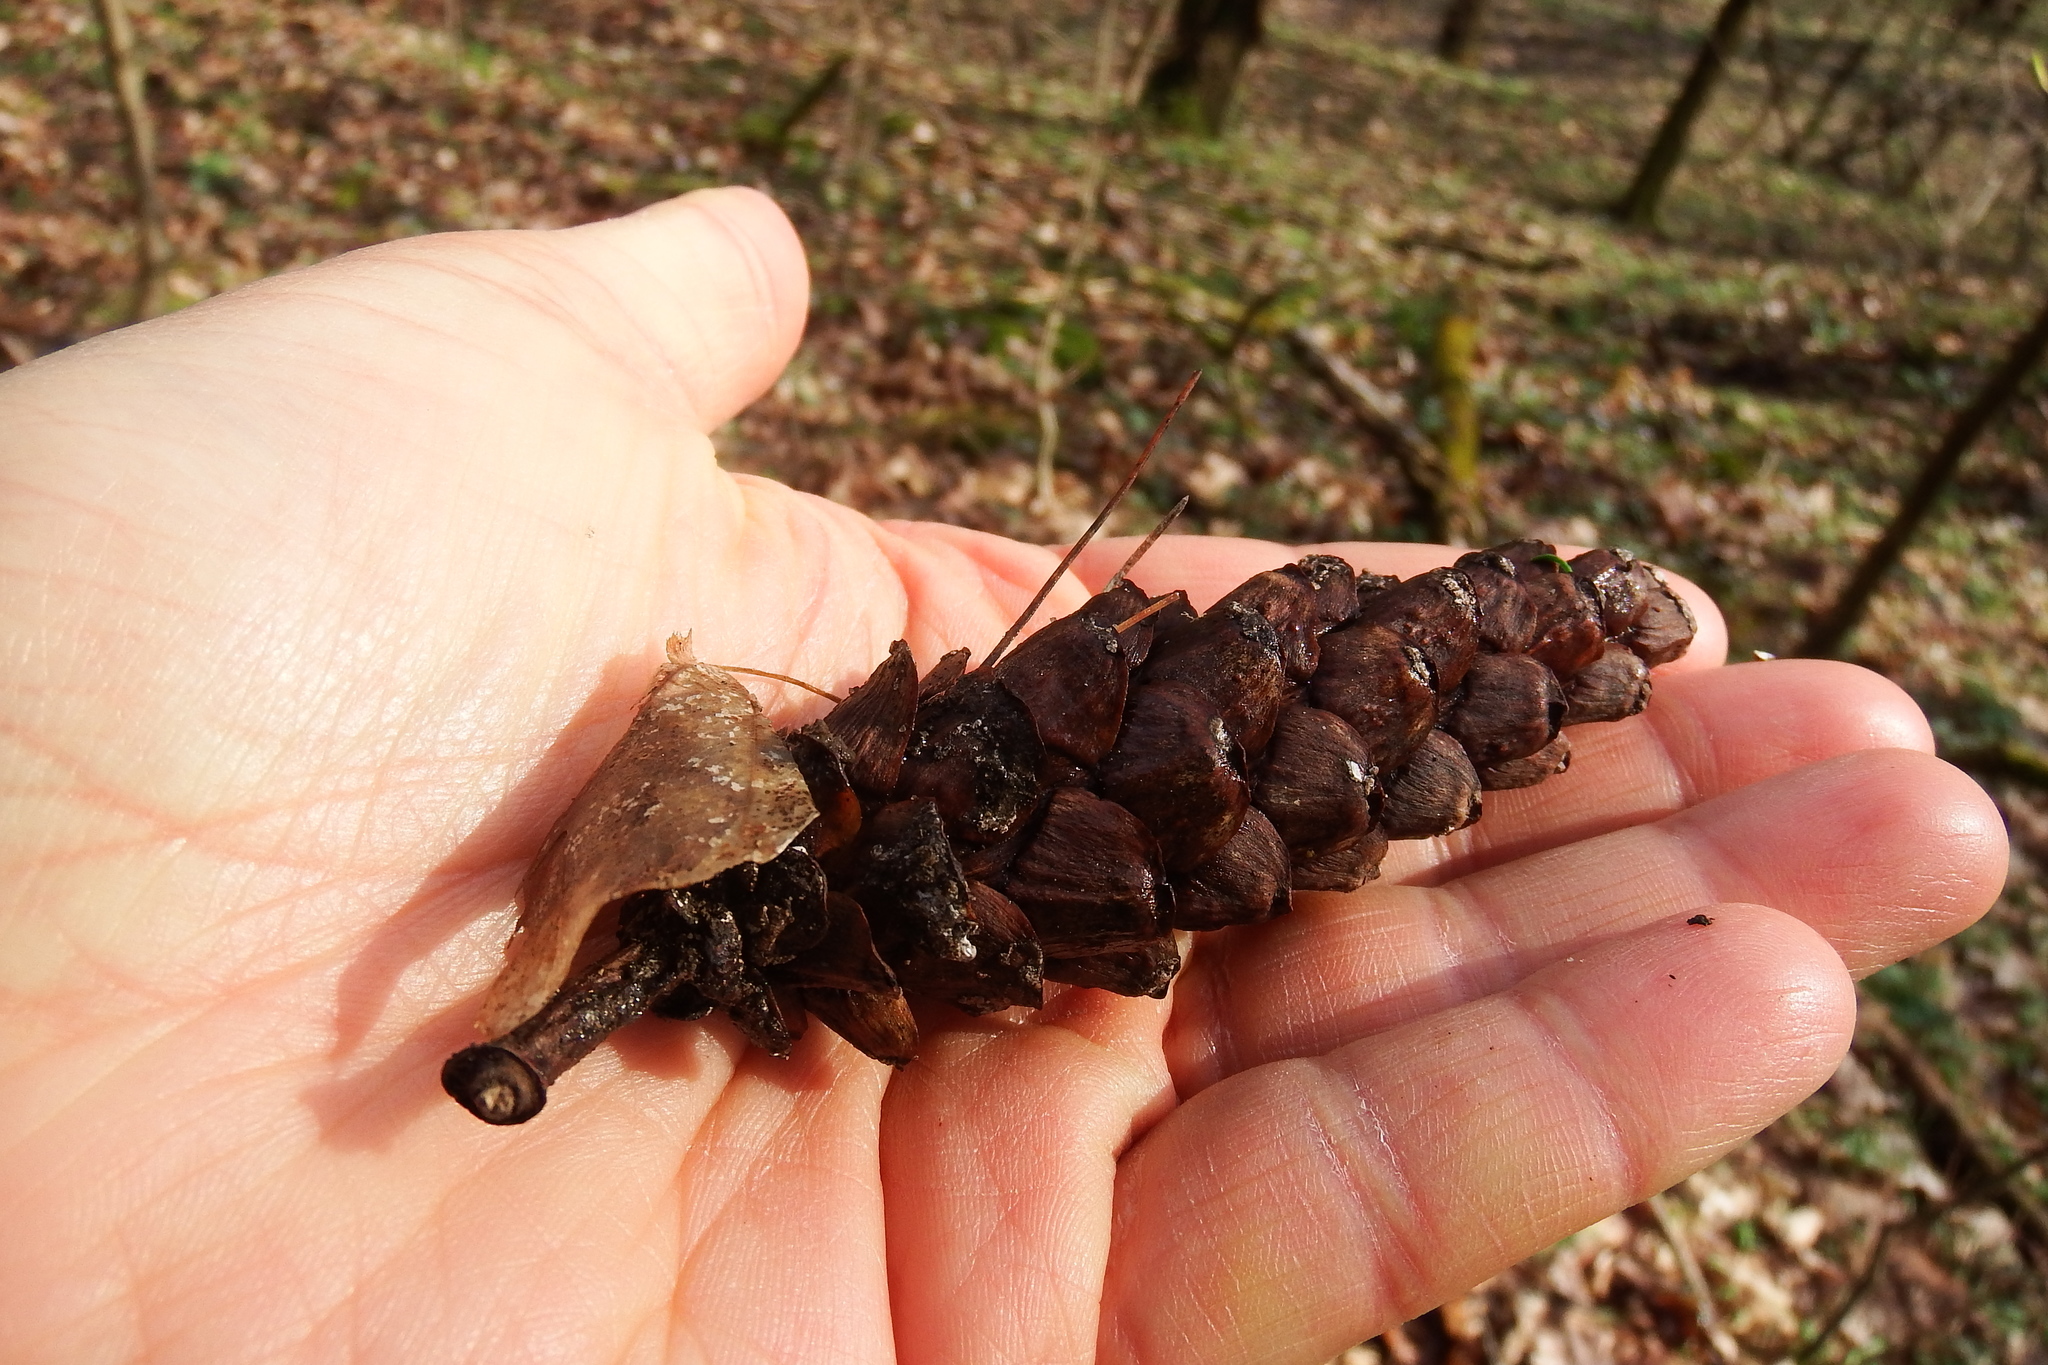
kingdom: Plantae
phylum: Tracheophyta
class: Pinopsida
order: Pinales
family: Pinaceae
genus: Pinus
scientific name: Pinus strobus
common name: Weymouth pine
